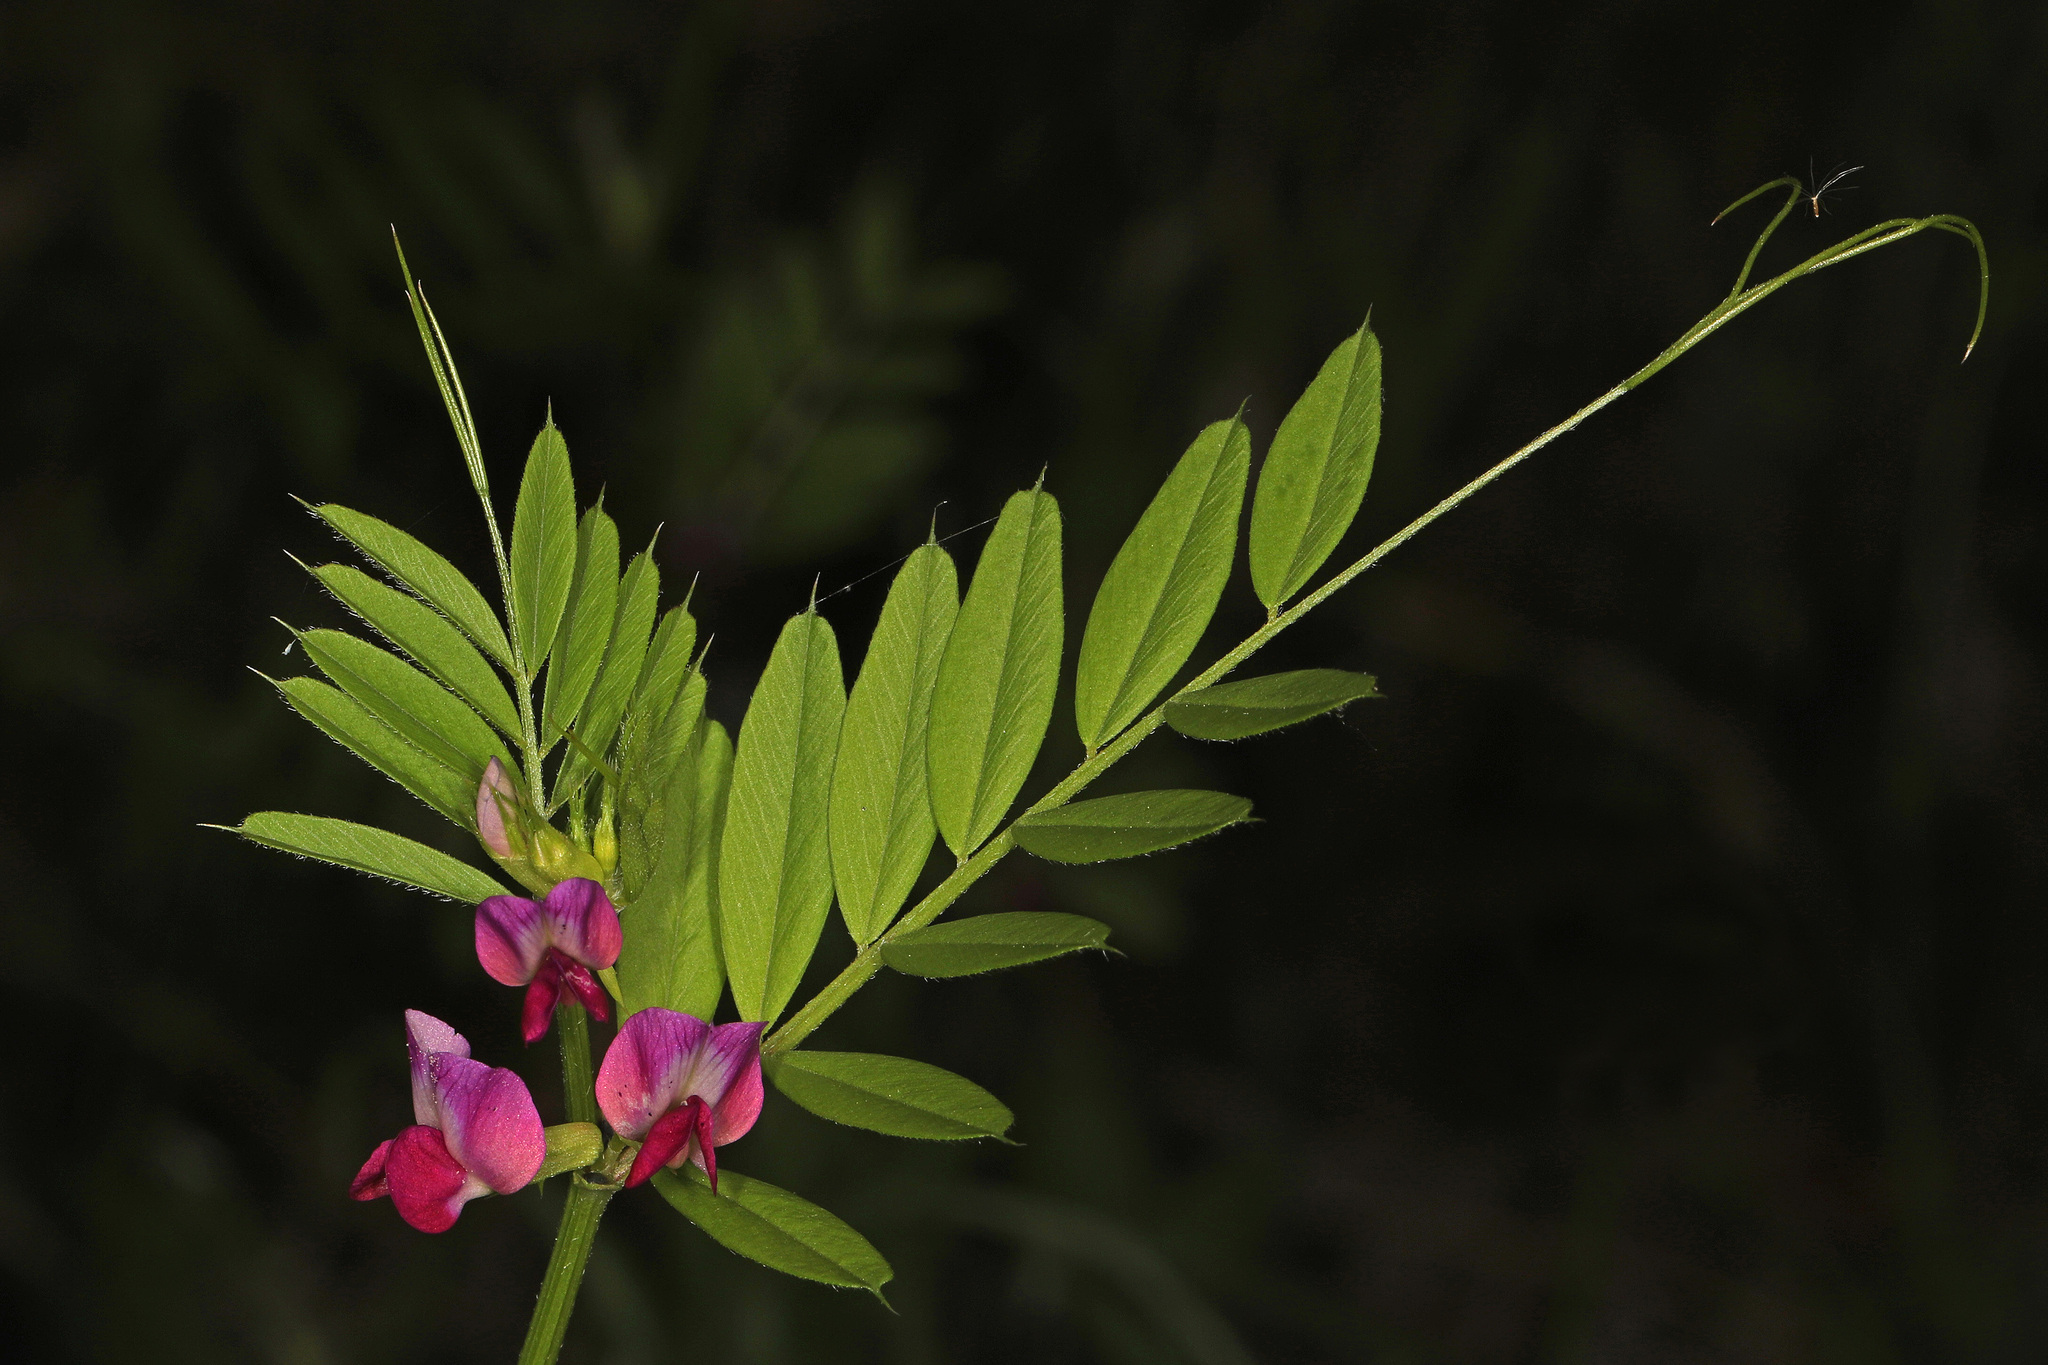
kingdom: Plantae
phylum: Tracheophyta
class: Magnoliopsida
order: Fabales
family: Fabaceae
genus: Vicia
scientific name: Vicia sativa
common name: Garden vetch
